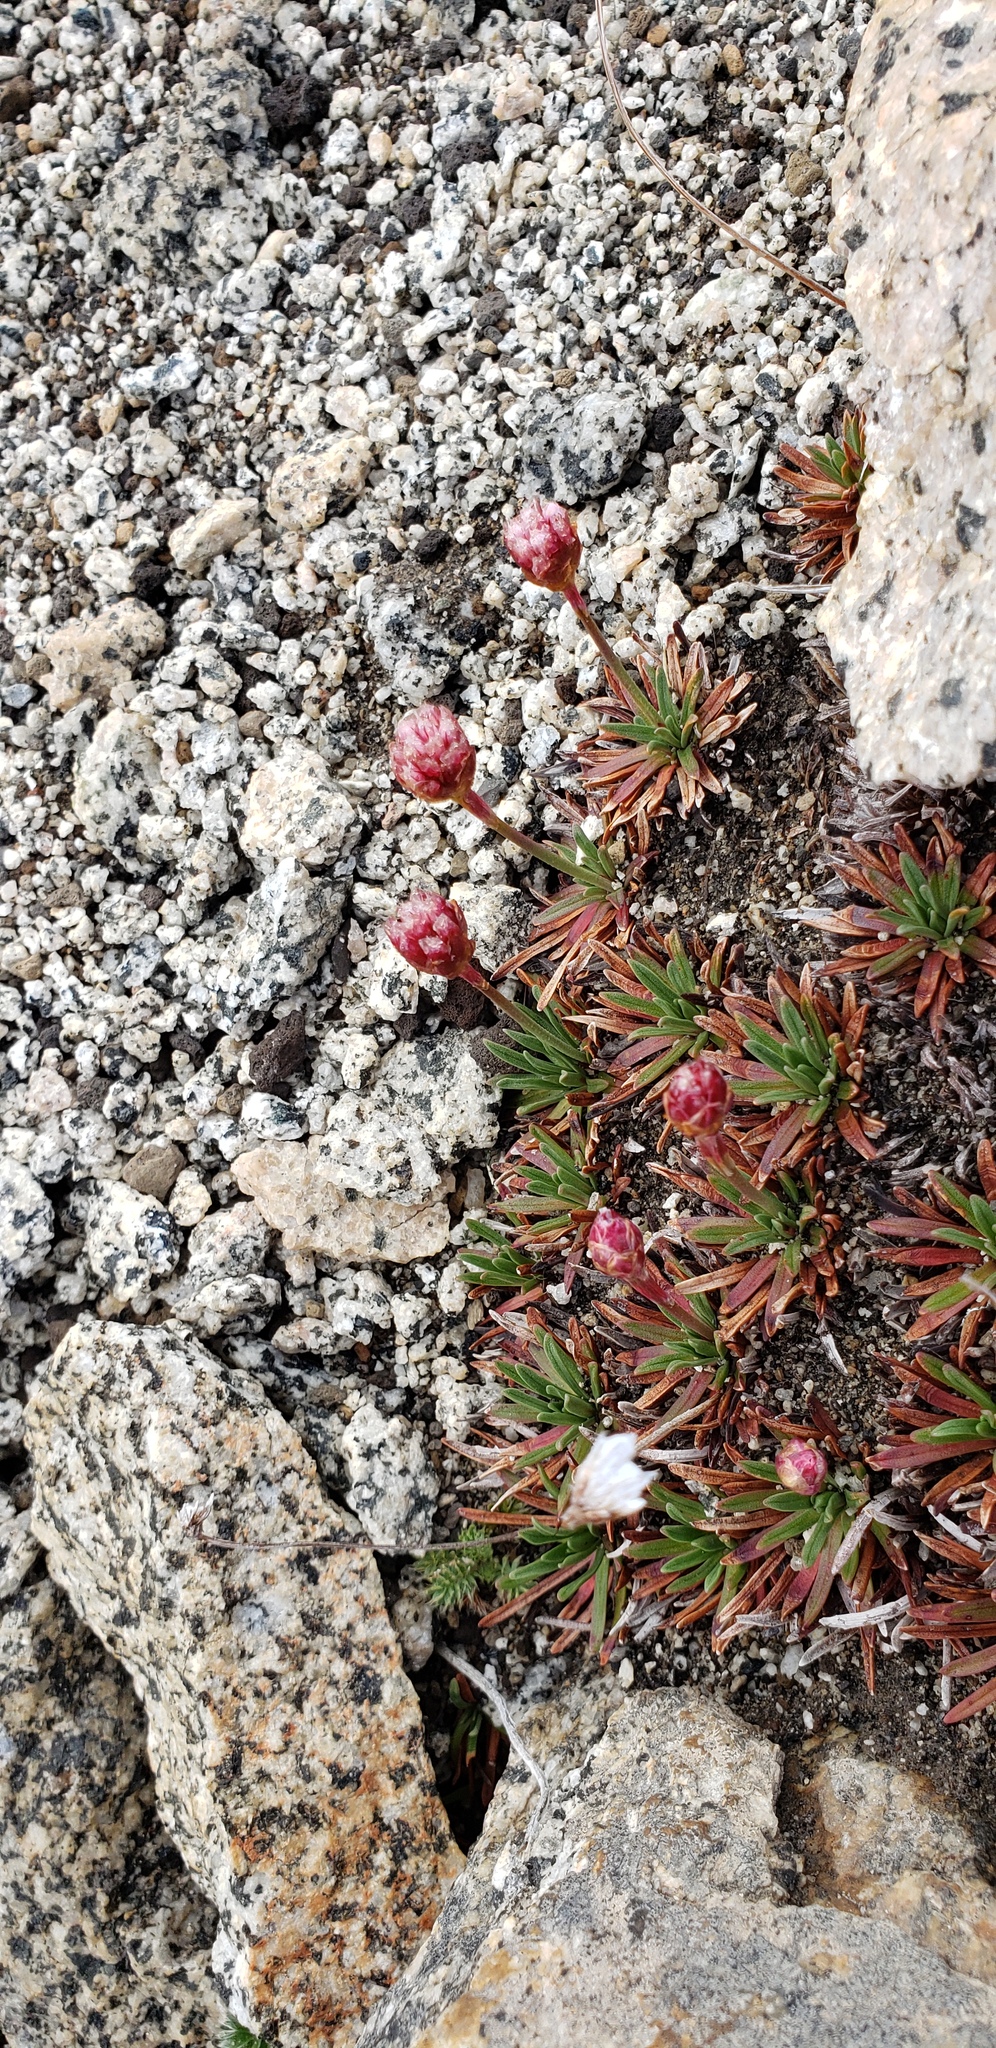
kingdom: Plantae
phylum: Tracheophyta
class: Magnoliopsida
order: Caryophyllales
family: Plumbaginaceae
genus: Armeria
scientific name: Armeria curvifolia
